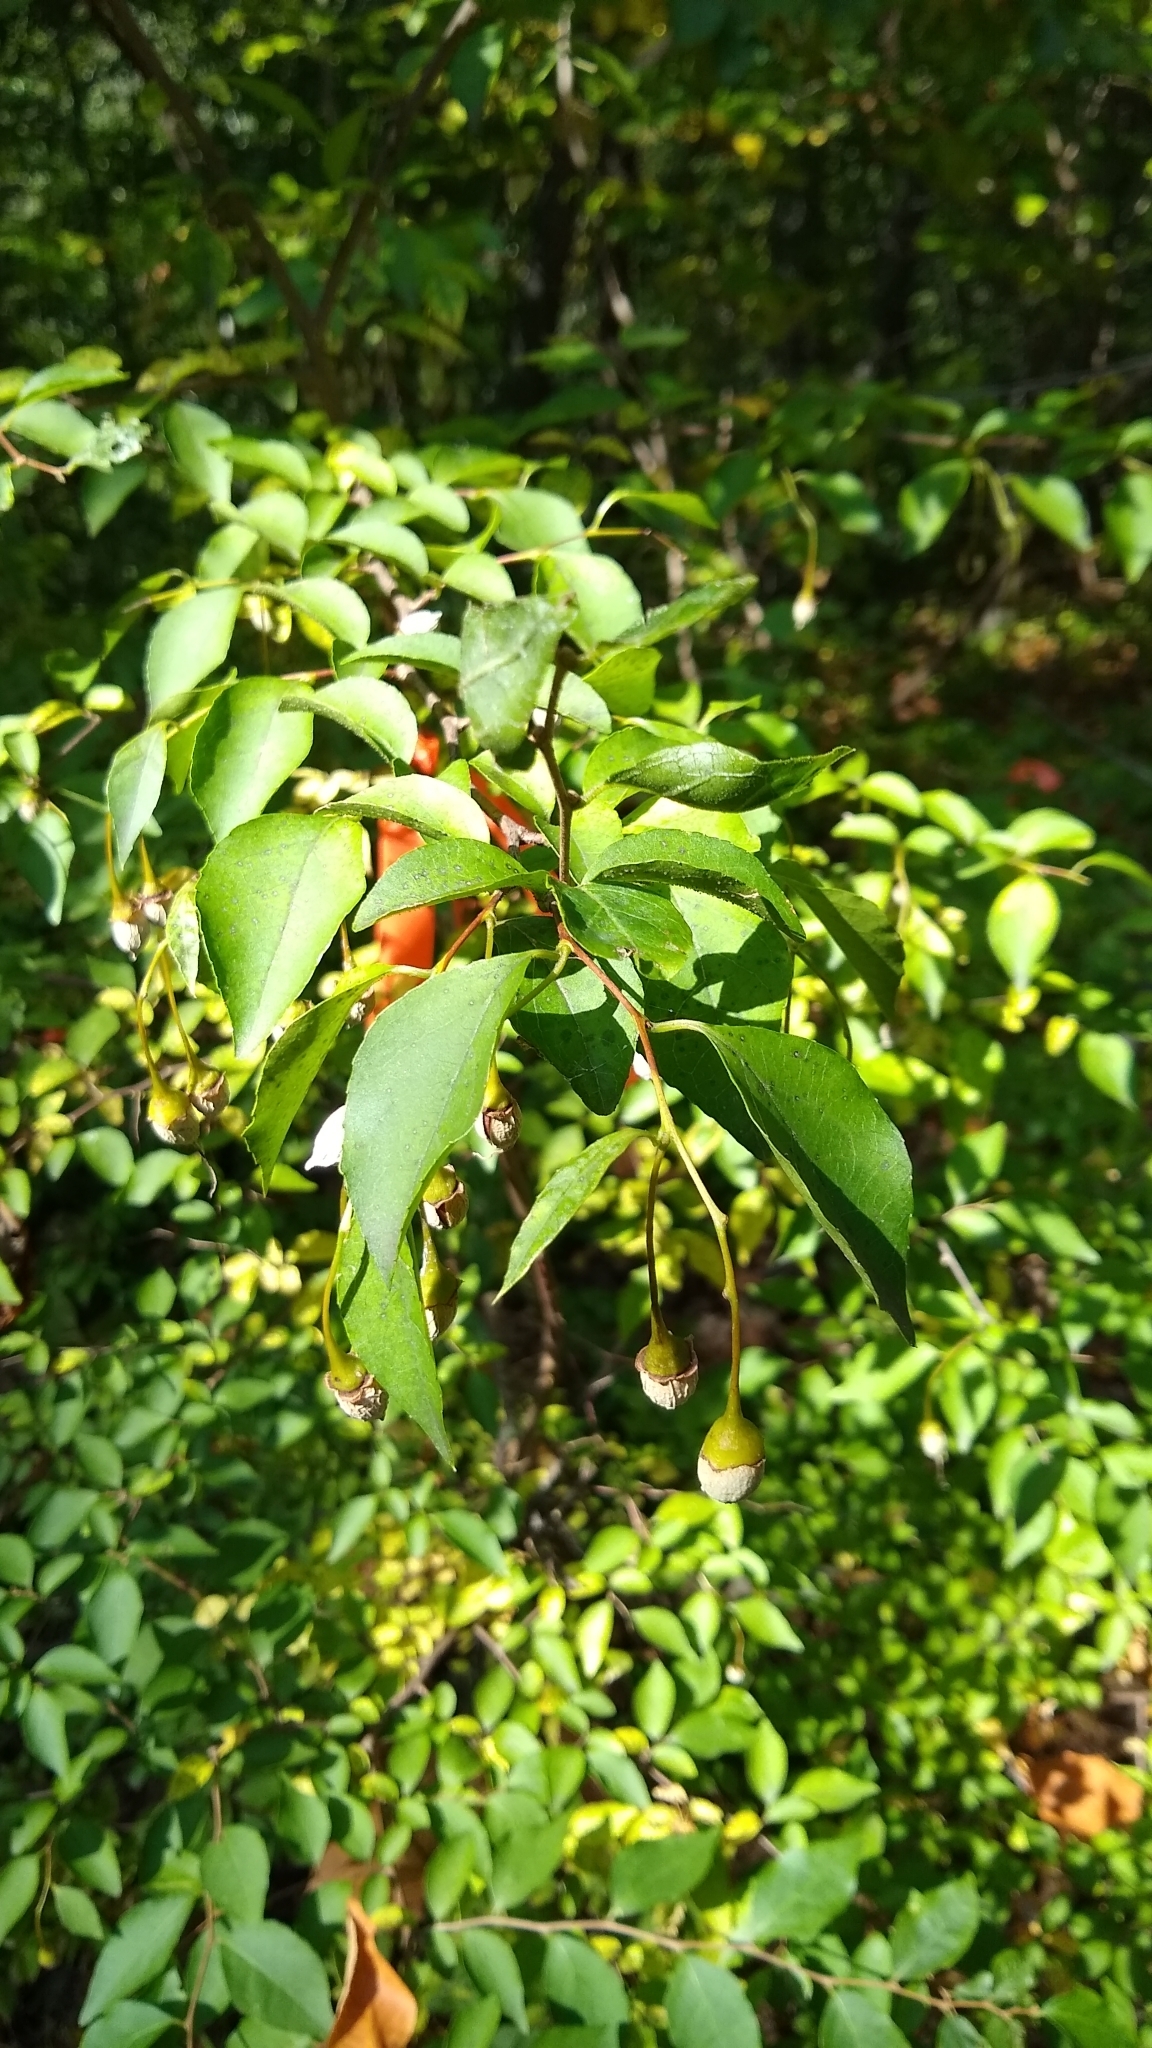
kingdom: Plantae
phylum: Tracheophyta
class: Magnoliopsida
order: Ericales
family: Styracaceae
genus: Styrax
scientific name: Styrax japonicus
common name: Japanese snowbell
